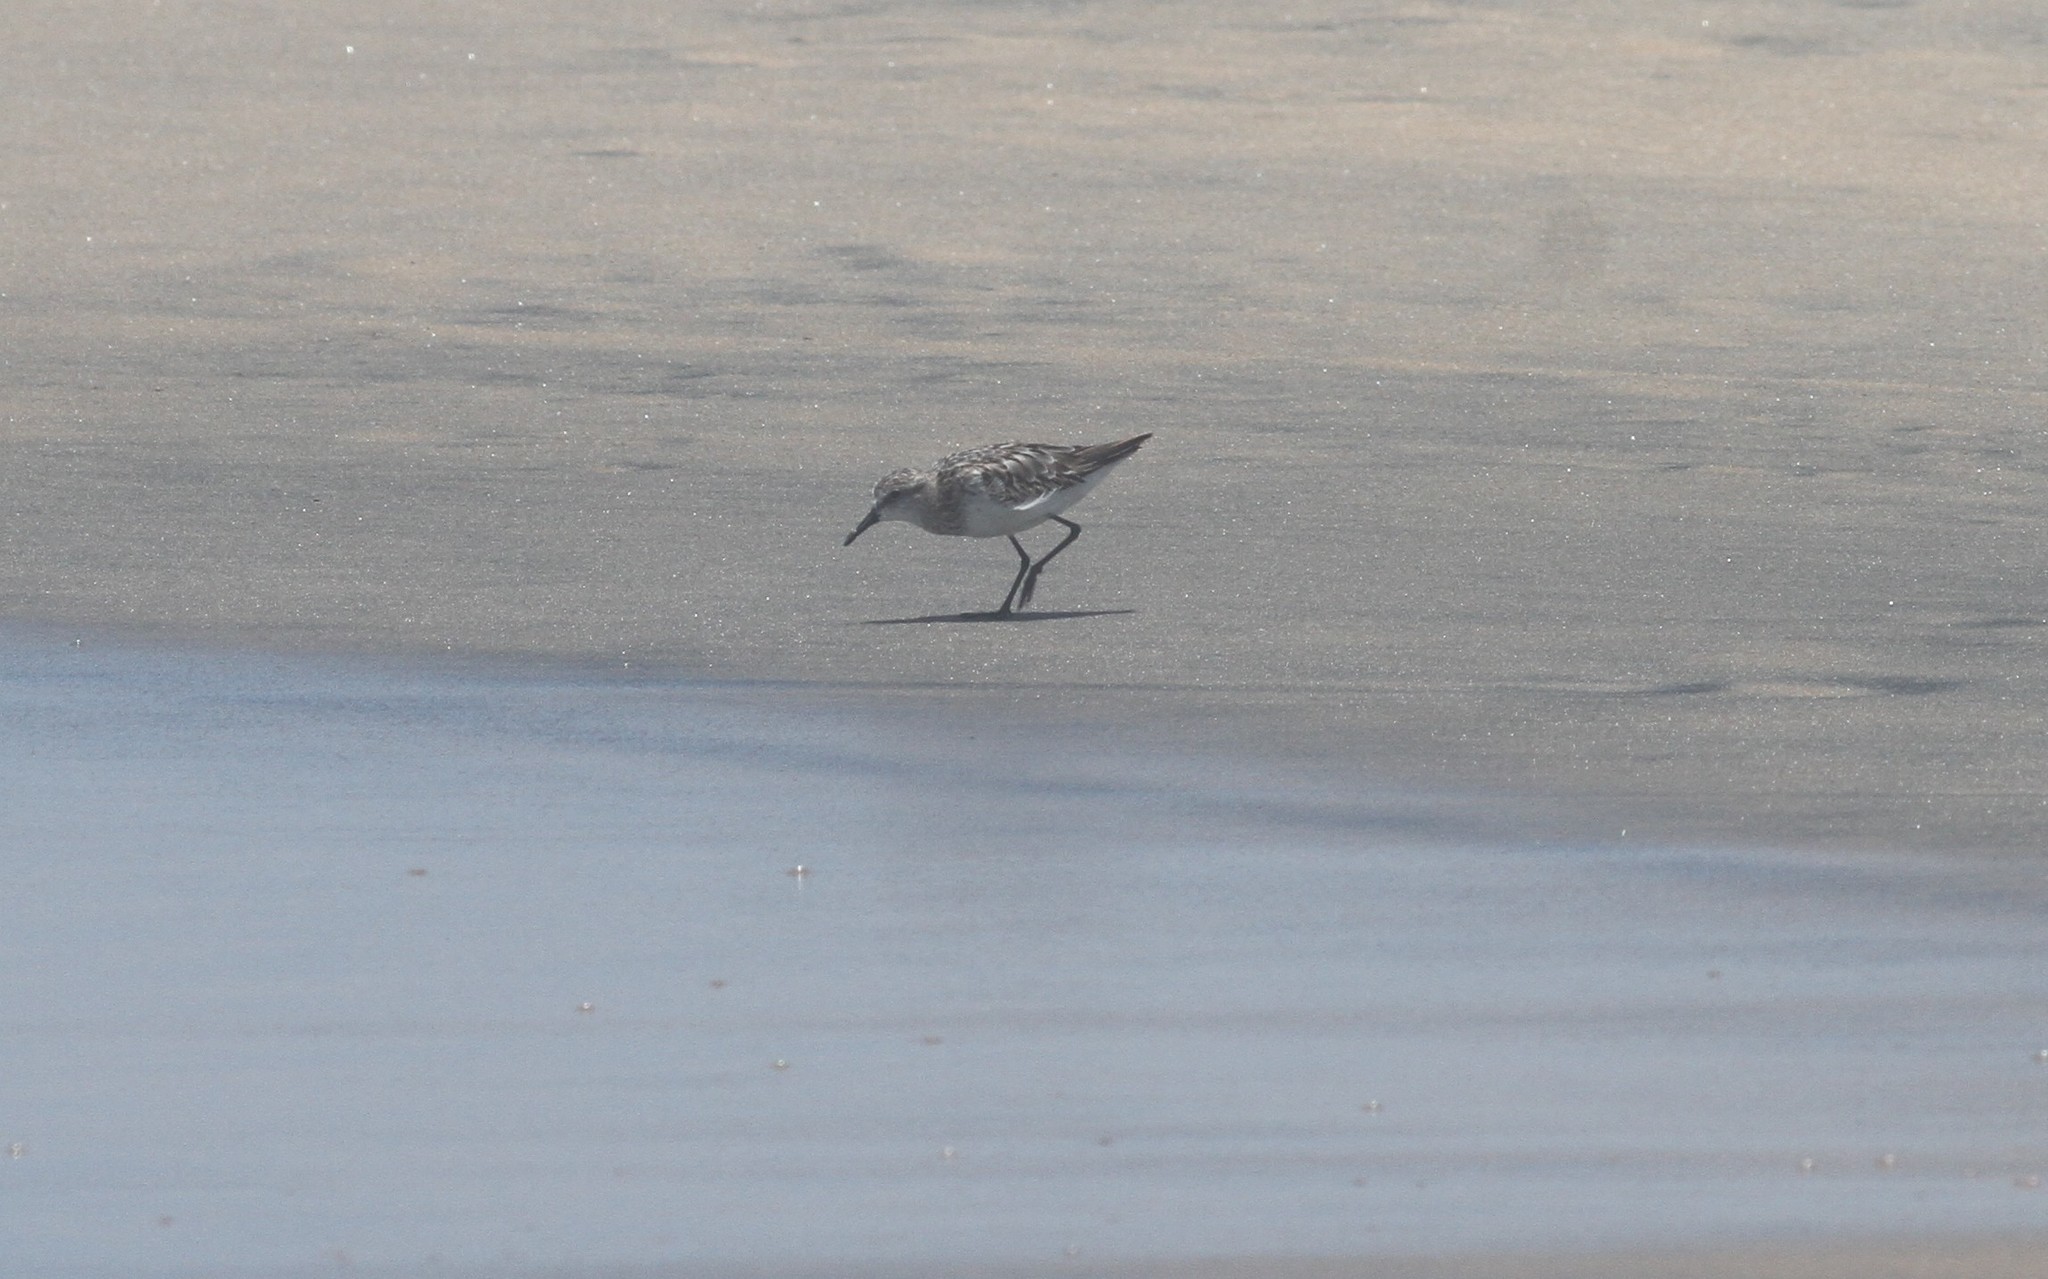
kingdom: Animalia
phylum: Chordata
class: Aves
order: Charadriiformes
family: Scolopacidae
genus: Calidris
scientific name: Calidris minuta
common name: Little stint
